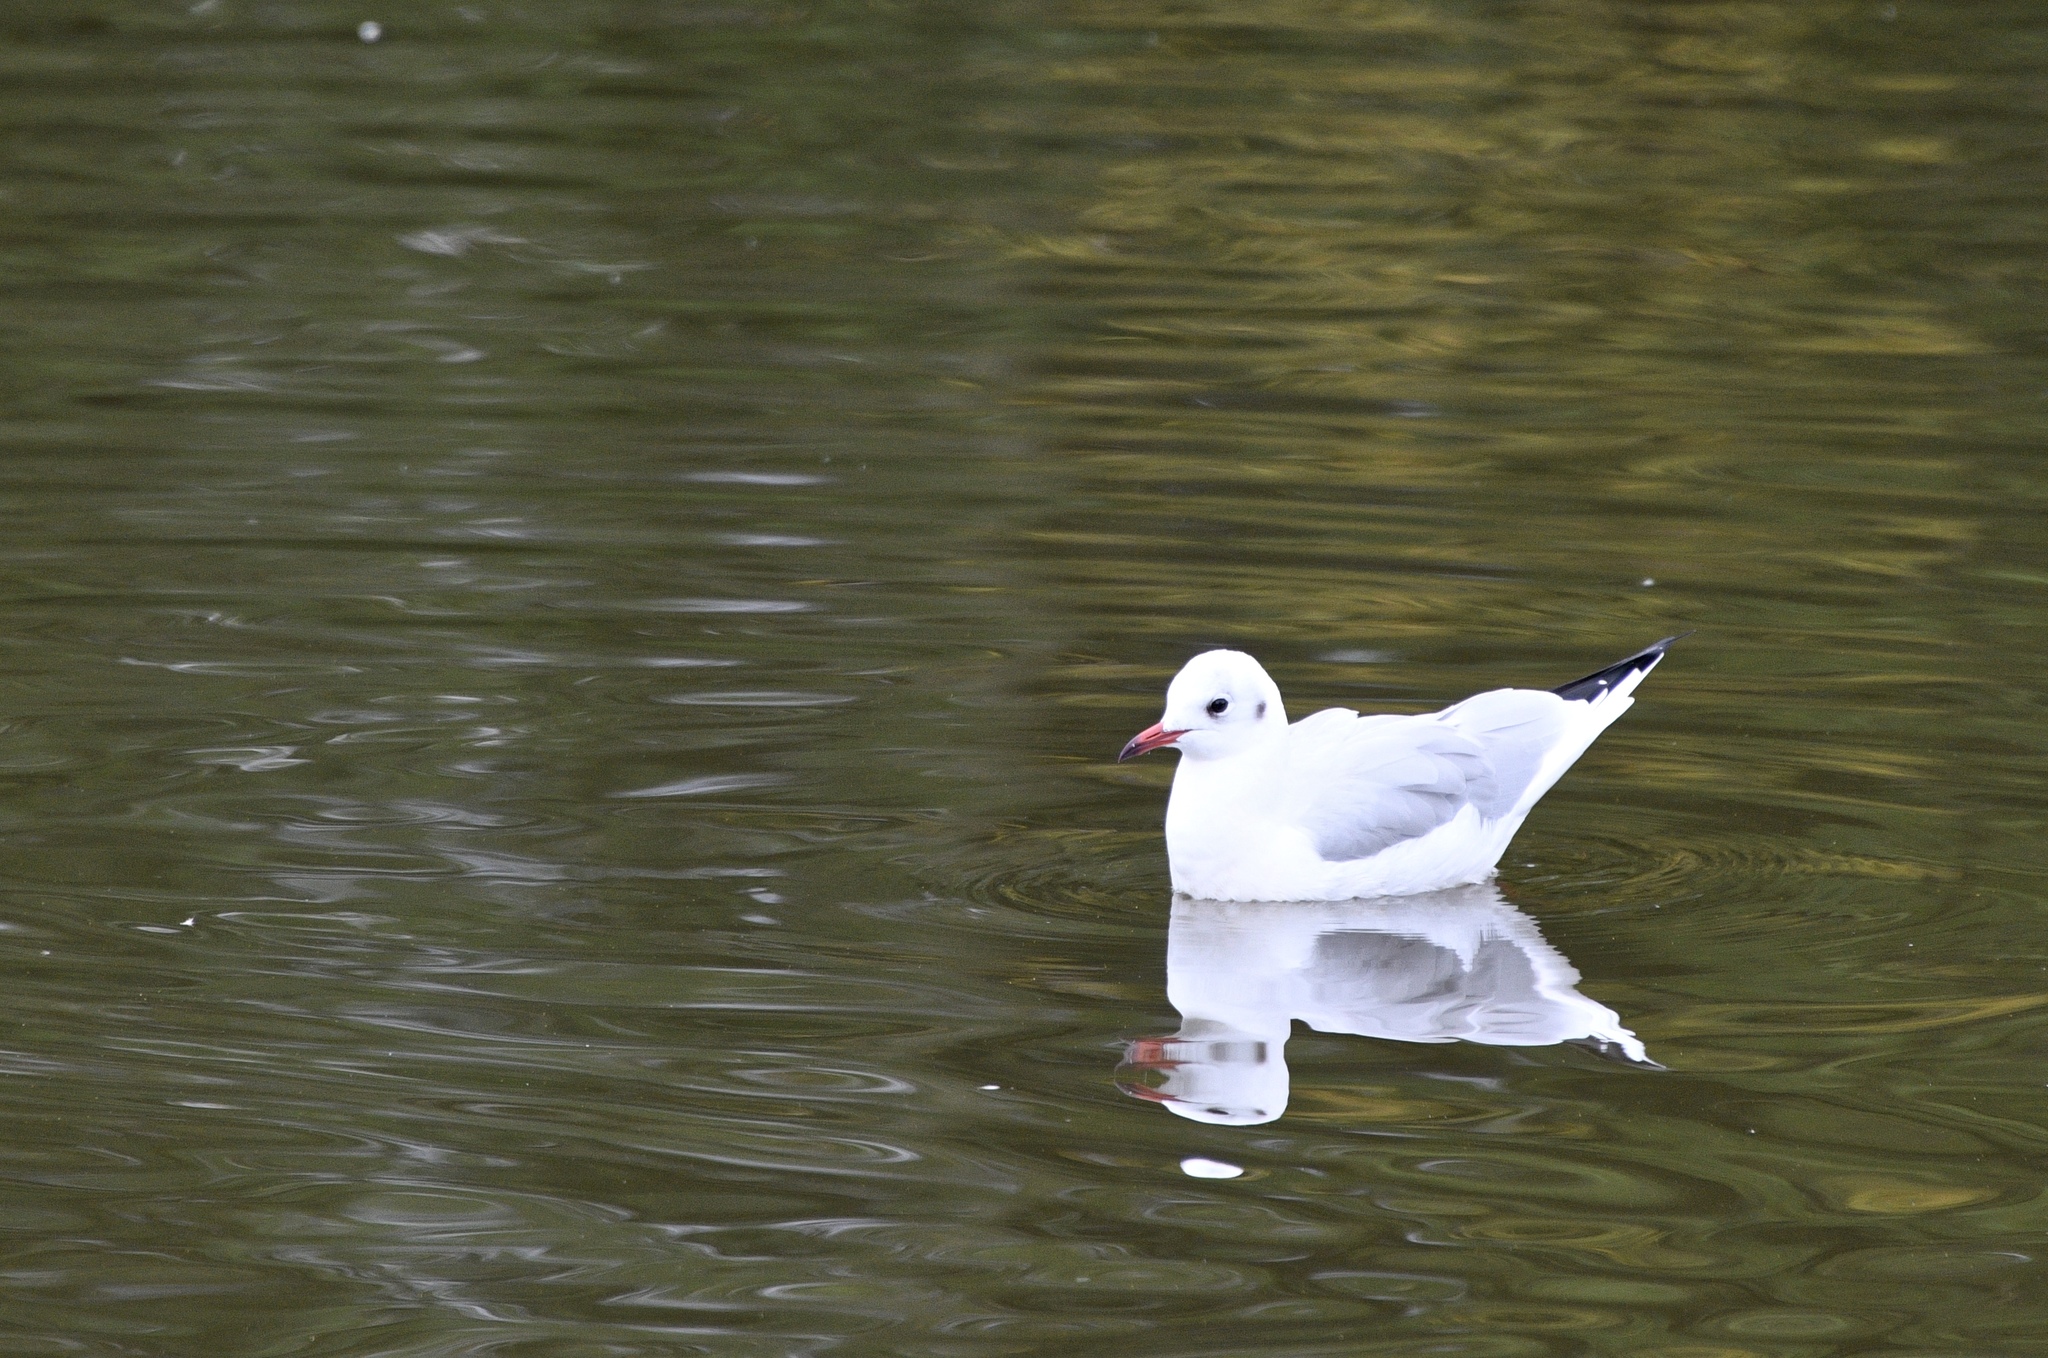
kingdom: Animalia
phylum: Chordata
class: Aves
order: Charadriiformes
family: Laridae
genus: Chroicocephalus
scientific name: Chroicocephalus ridibundus
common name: Black-headed gull
